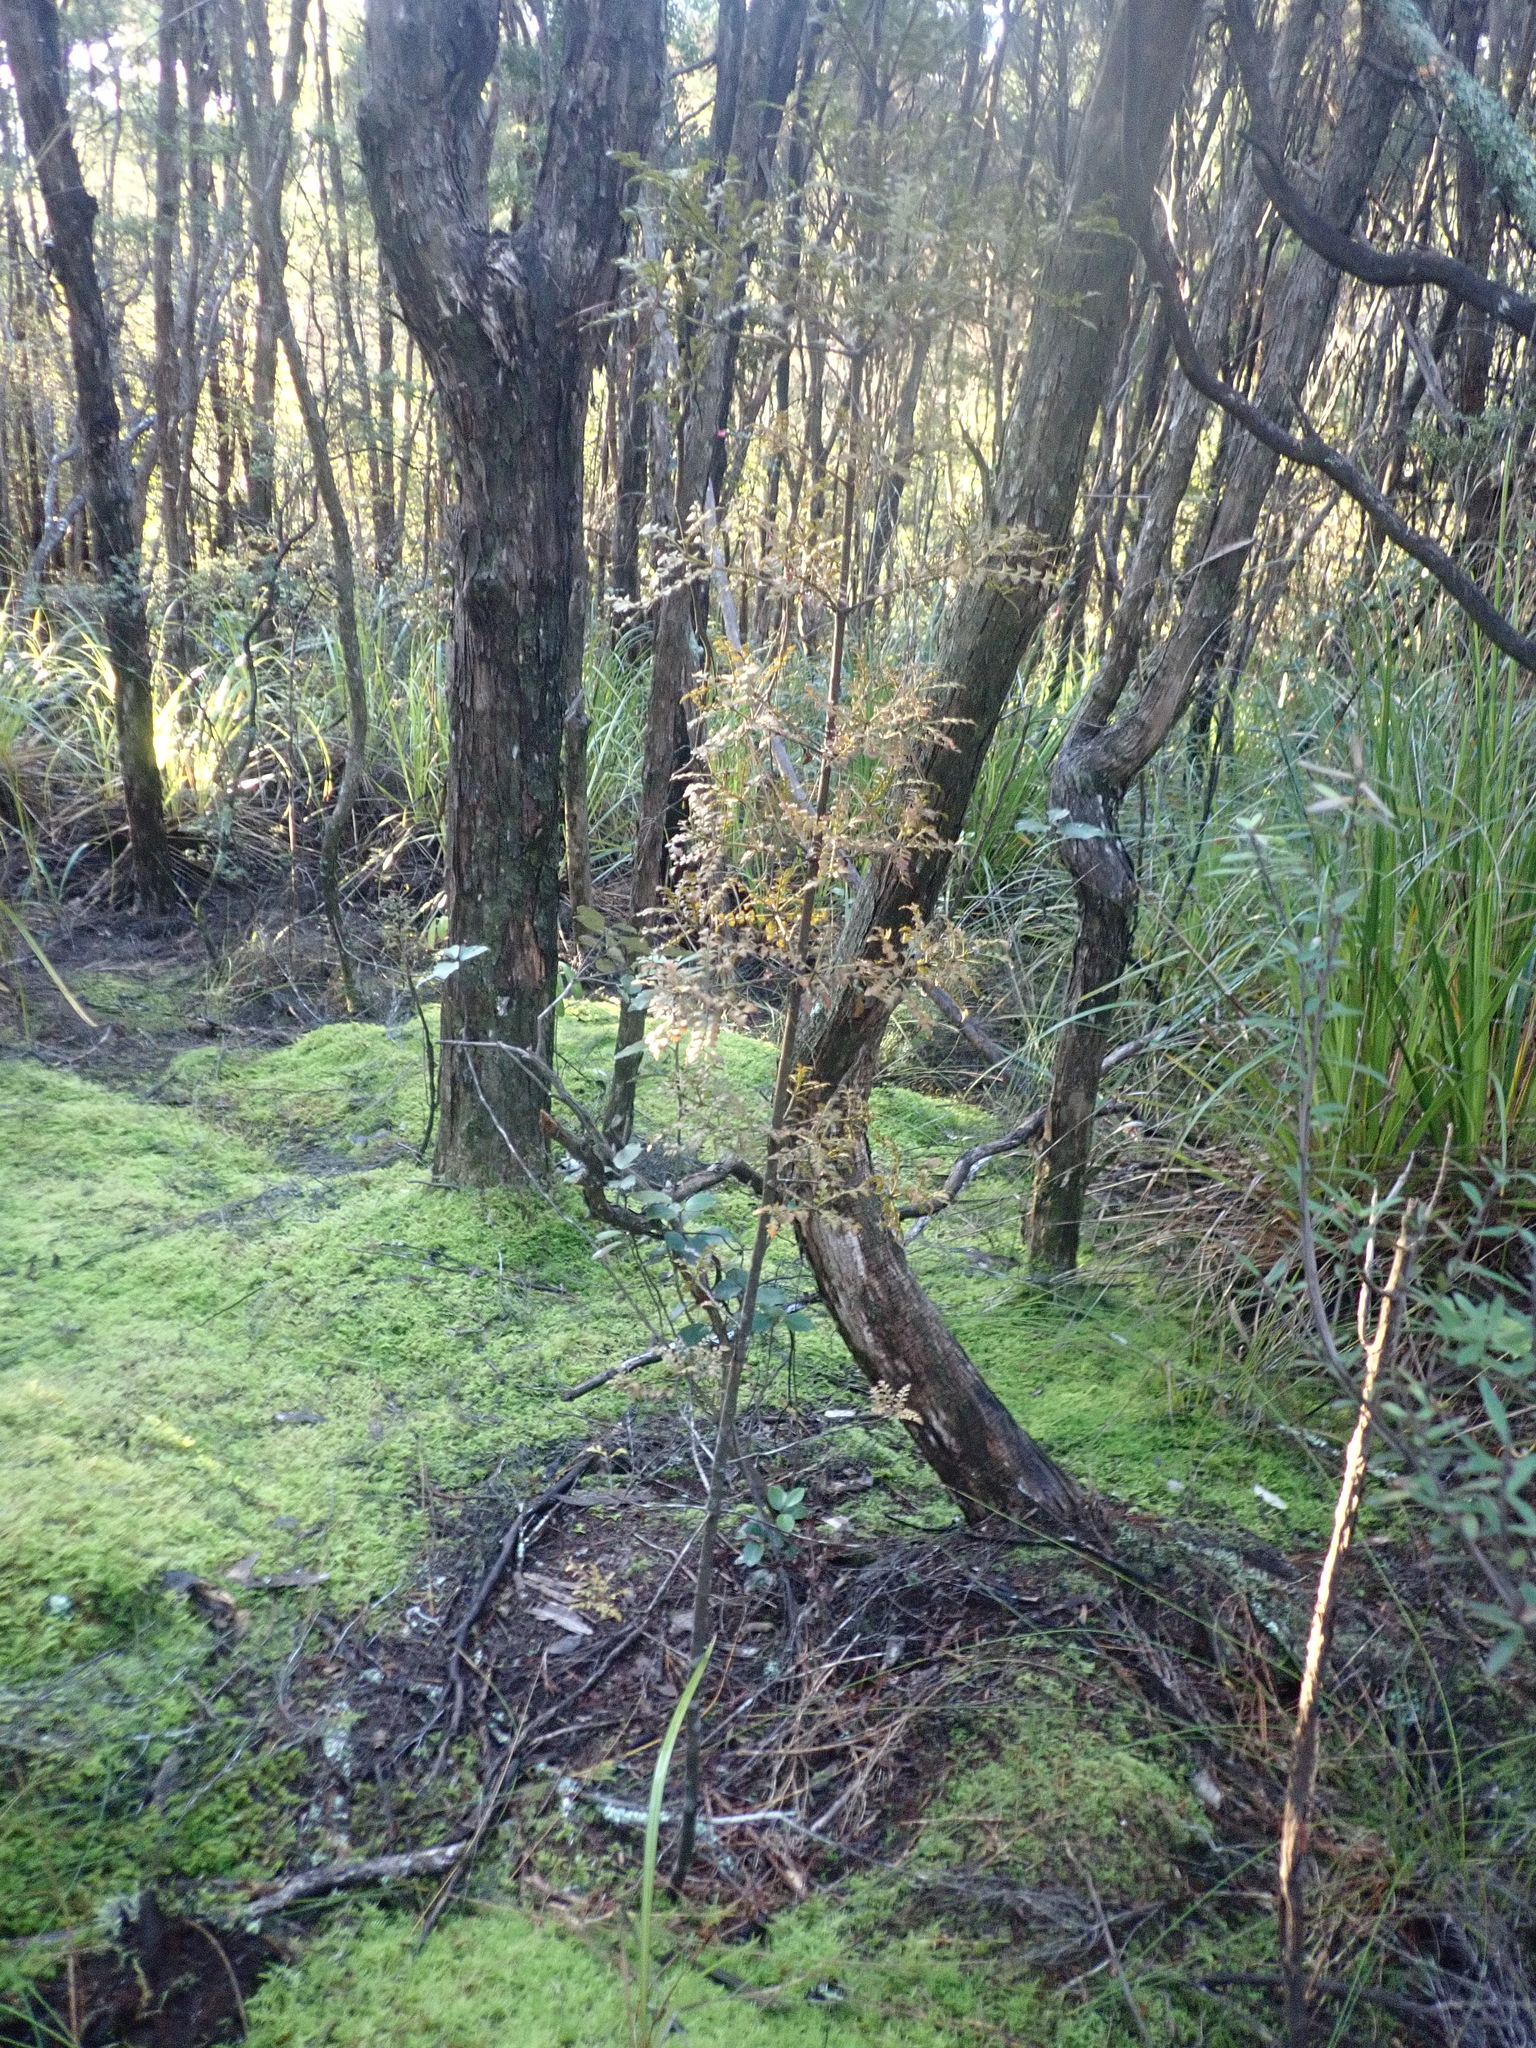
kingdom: Plantae
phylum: Tracheophyta
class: Pinopsida
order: Pinales
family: Phyllocladaceae
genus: Phyllocladus
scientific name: Phyllocladus trichomanoides
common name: Celery pine
